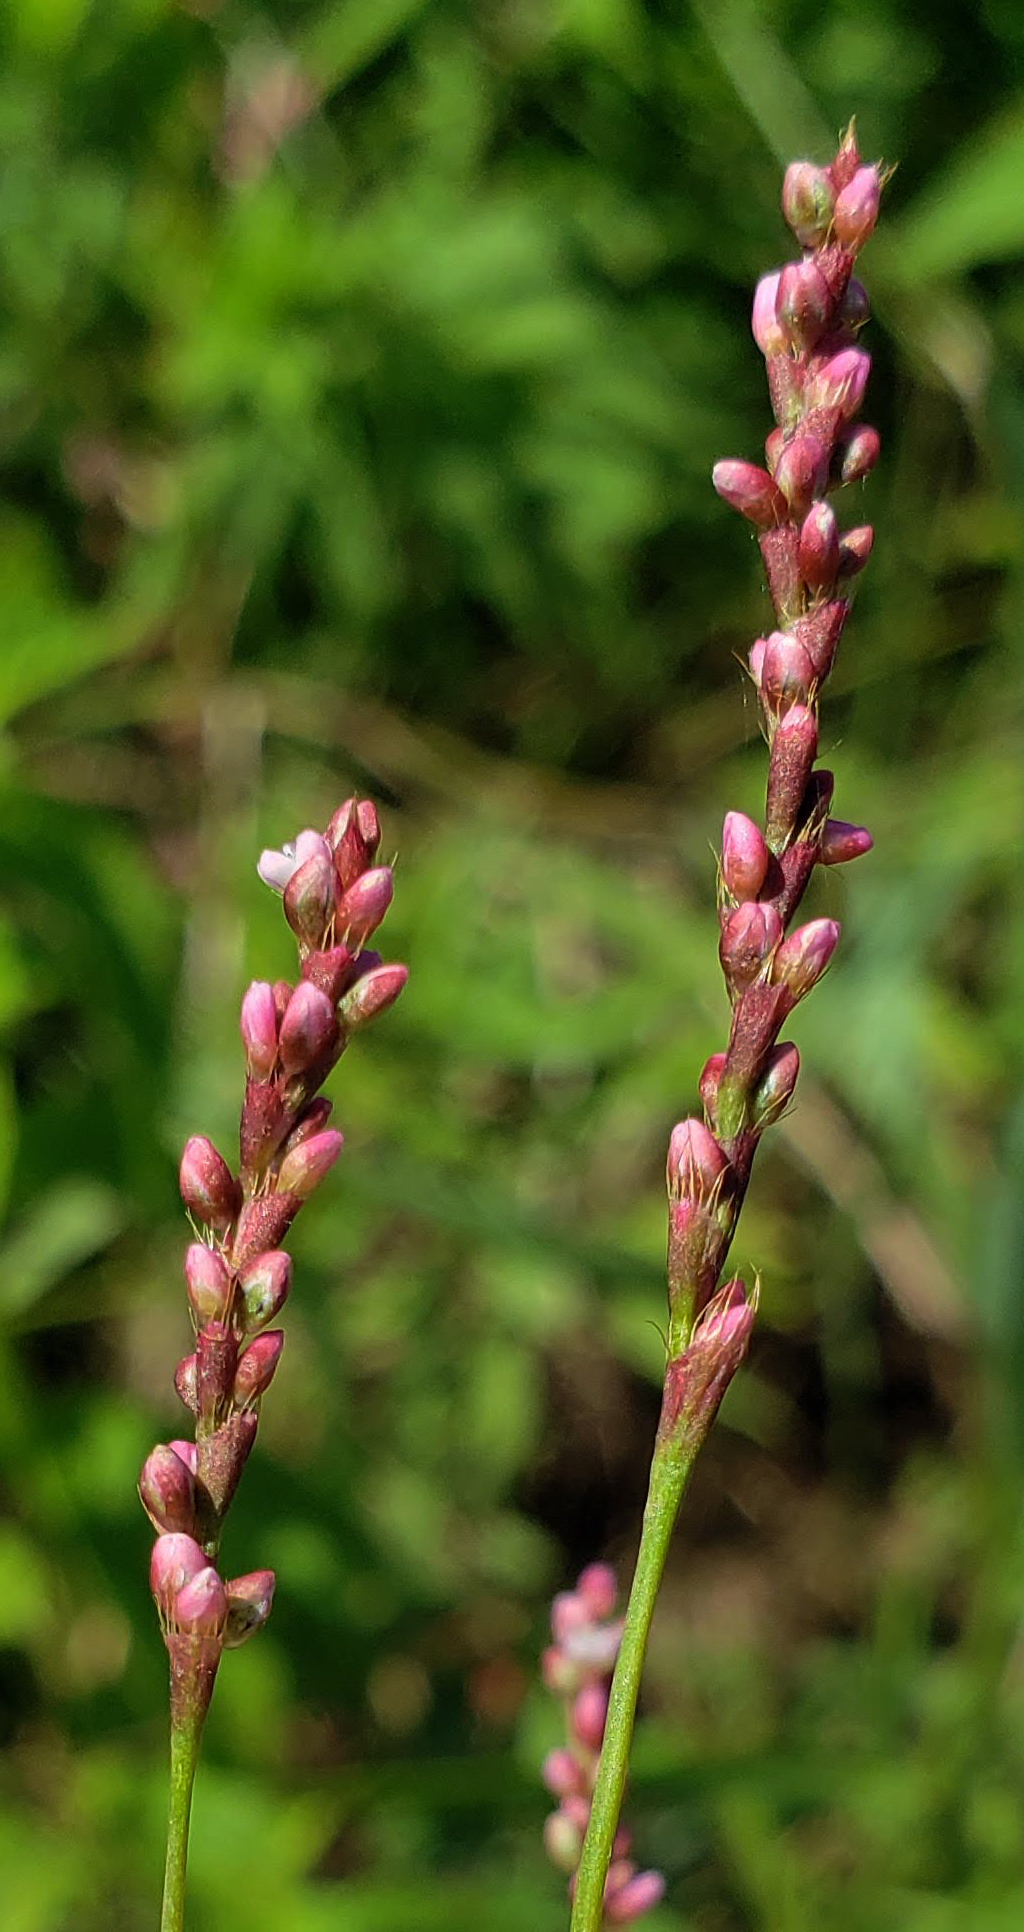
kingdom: Plantae
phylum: Tracheophyta
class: Magnoliopsida
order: Caryophyllales
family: Polygonaceae
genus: Persicaria
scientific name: Persicaria longiseta
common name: Bristly lady's-thumb
